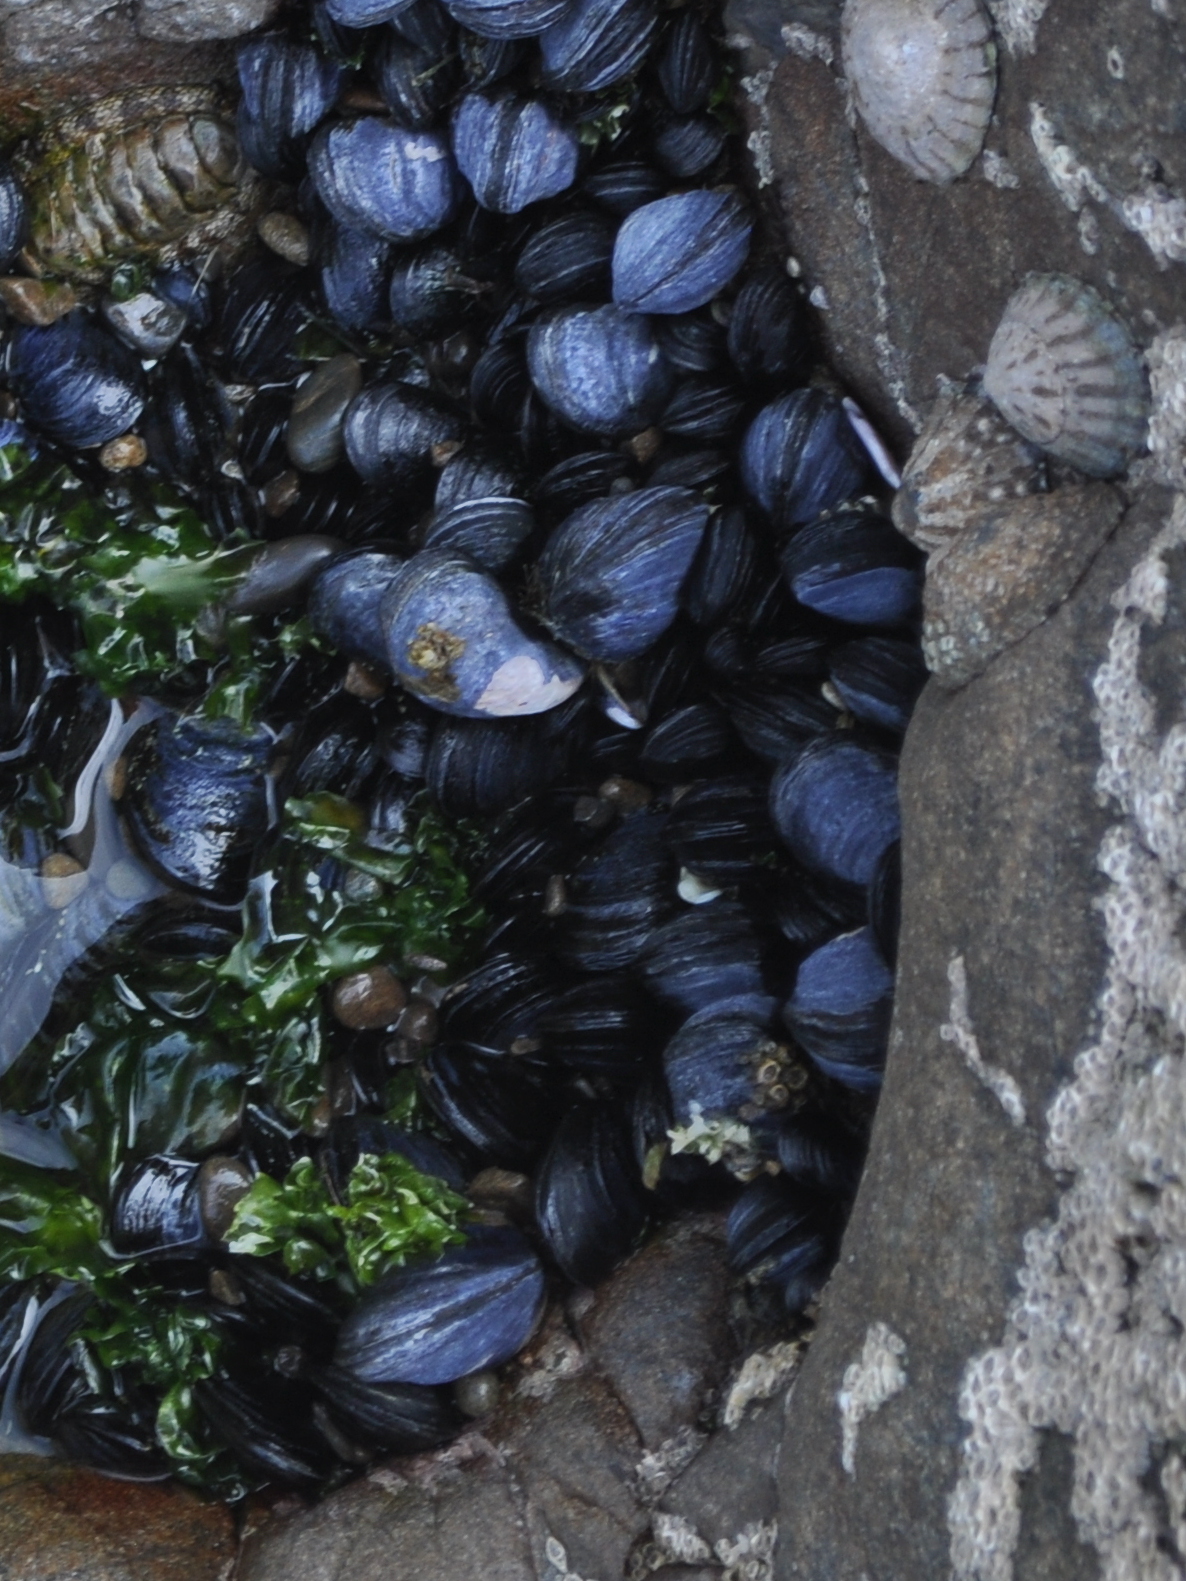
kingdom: Animalia
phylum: Mollusca
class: Bivalvia
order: Mytilida
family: Mytilidae
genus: Mytilus
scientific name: Mytilus planulatus
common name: Australian mussel
